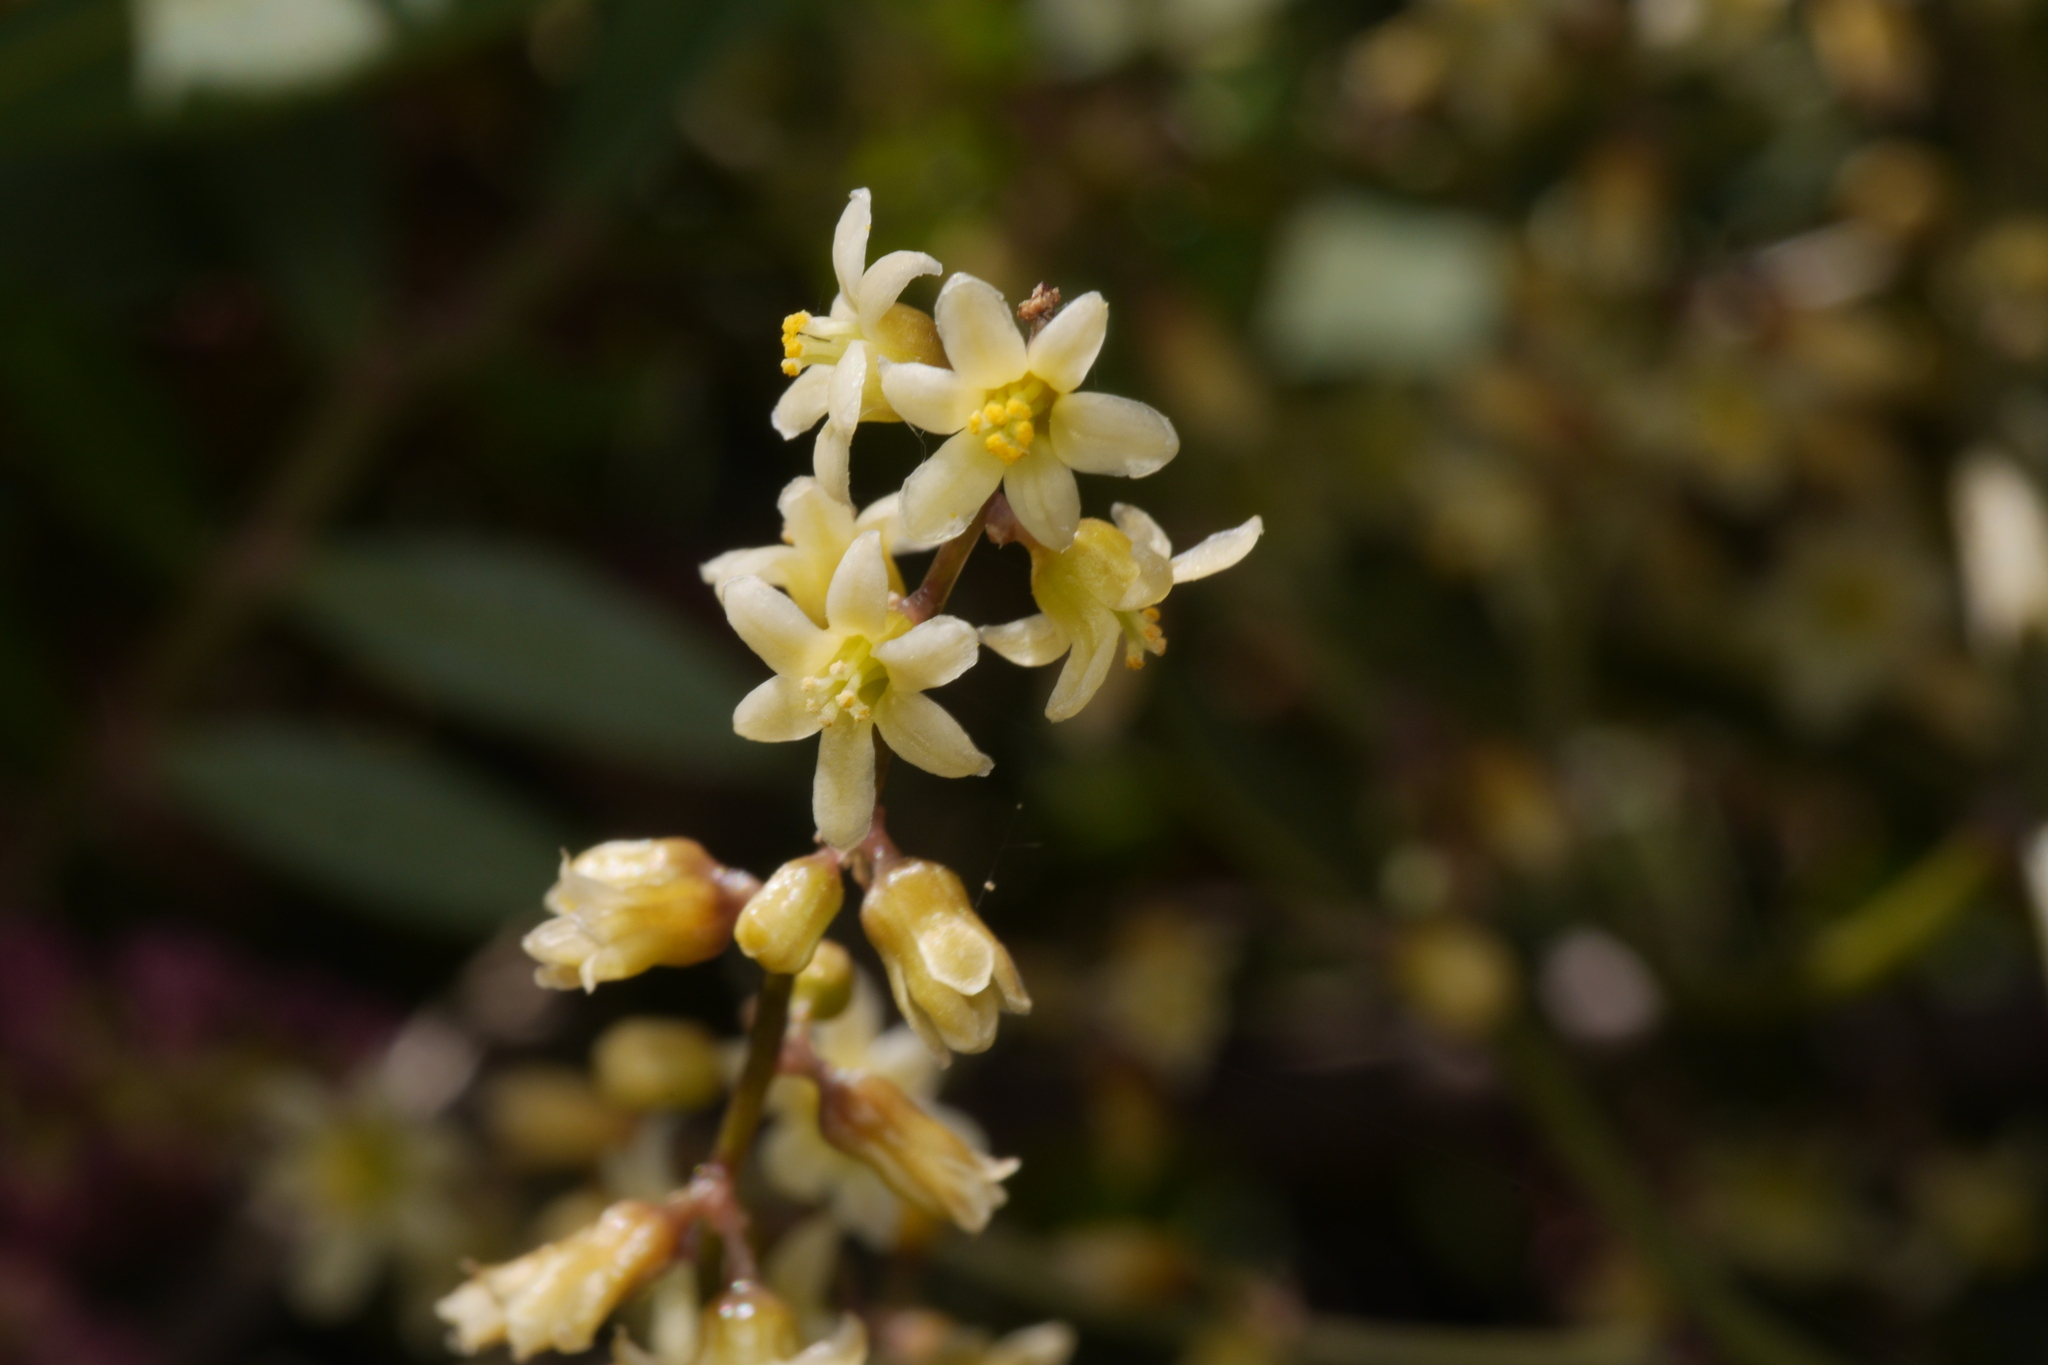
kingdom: Plantae
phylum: Tracheophyta
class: Liliopsida
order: Dioscoreales
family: Dioscoreaceae
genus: Dioscorea
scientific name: Dioscorea communis
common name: Black-bindweed
